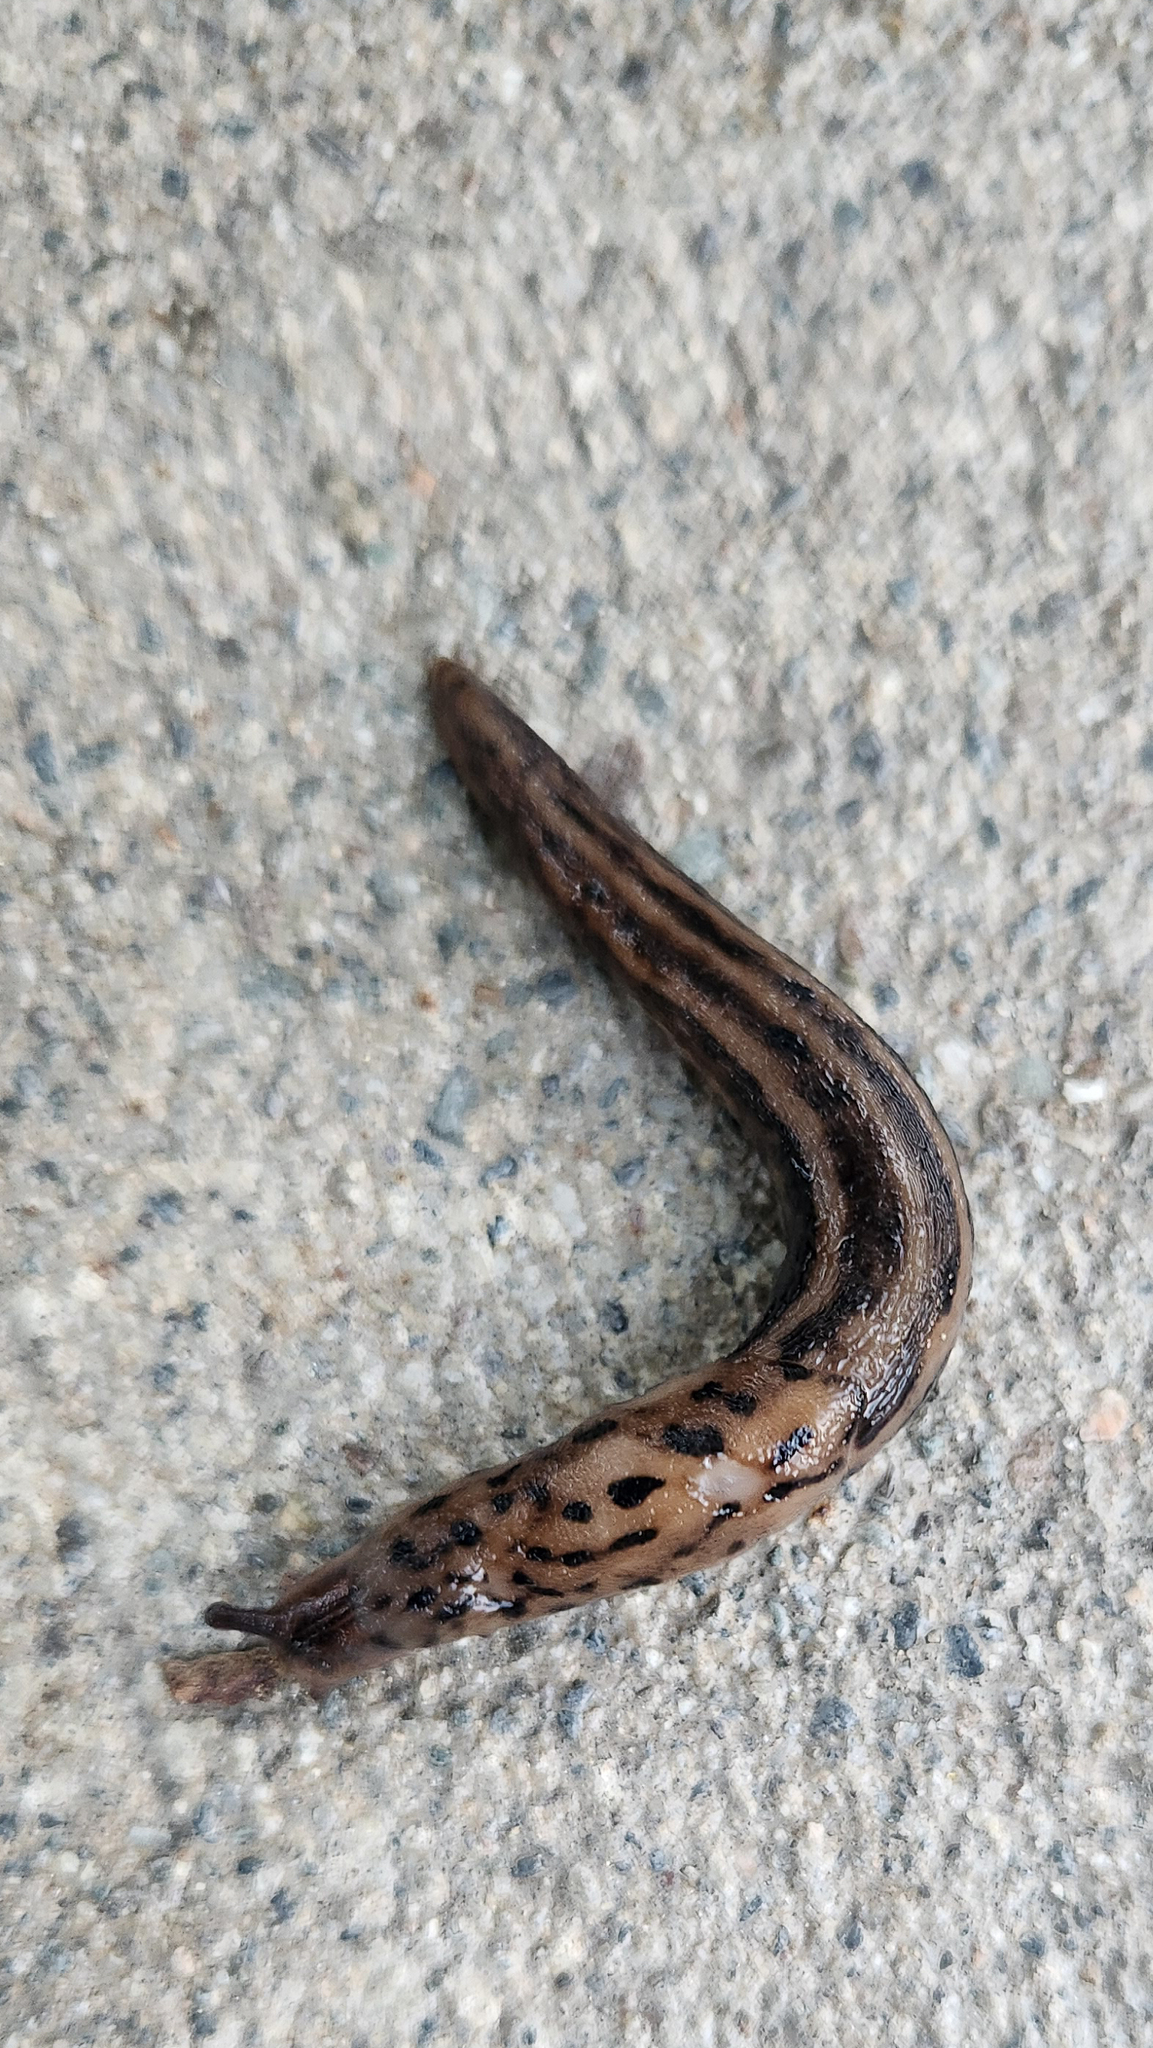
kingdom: Animalia
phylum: Mollusca
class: Gastropoda
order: Stylommatophora
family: Limacidae
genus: Limax
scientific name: Limax maximus
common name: Great grey slug
